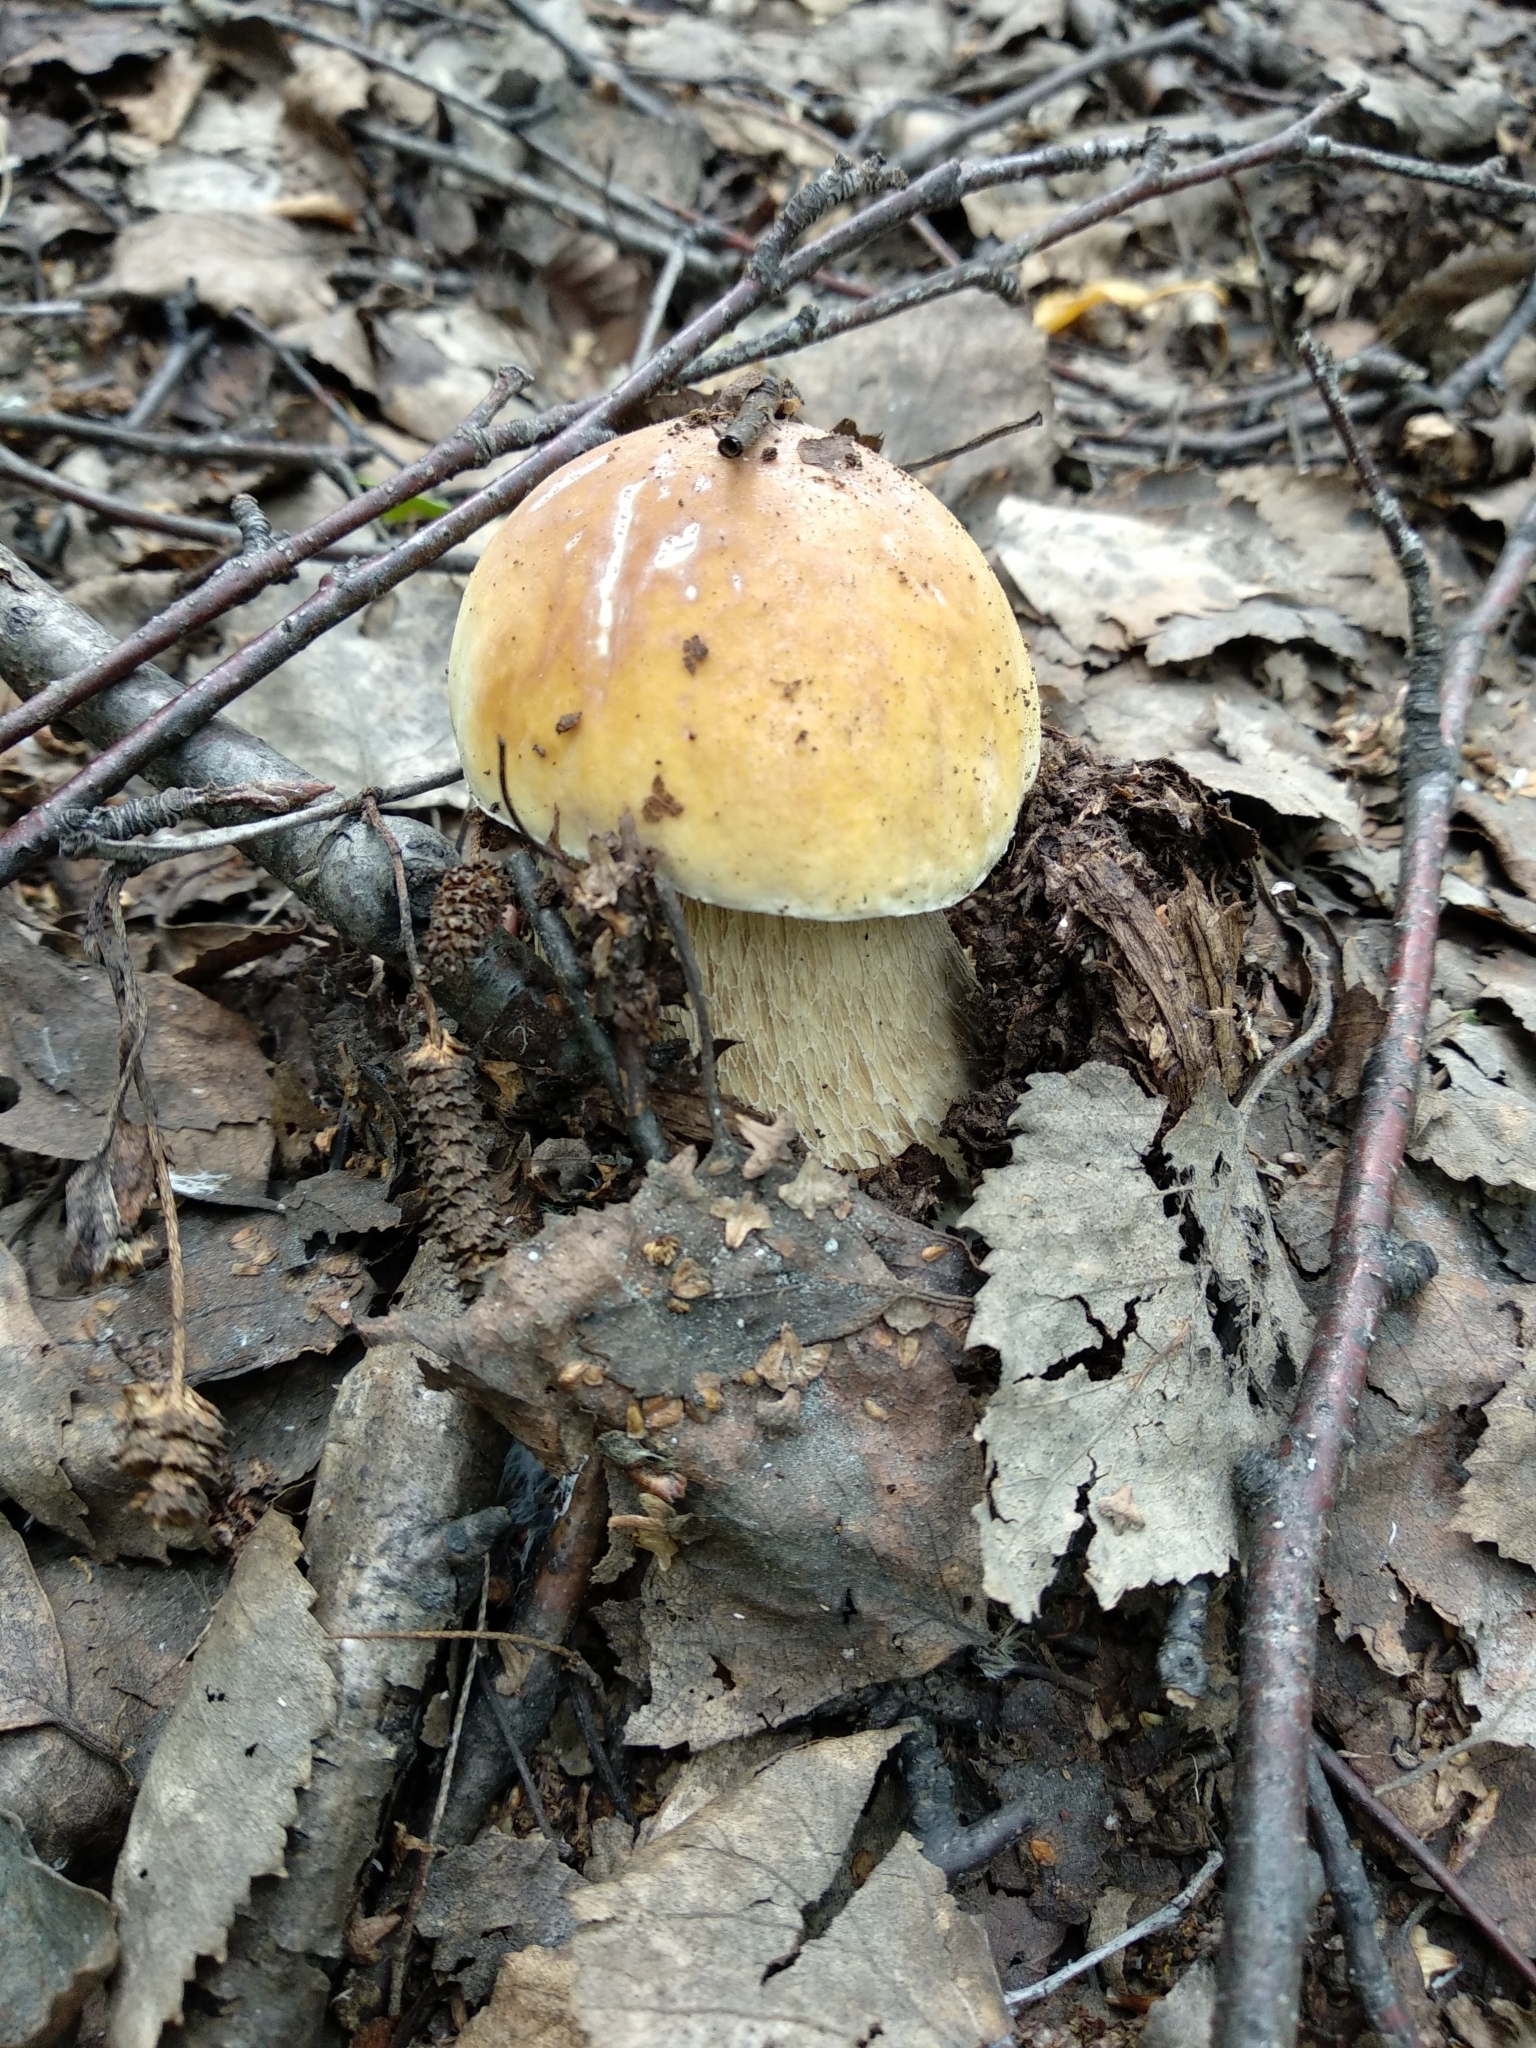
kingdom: Fungi
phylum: Basidiomycota
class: Agaricomycetes
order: Boletales
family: Boletaceae
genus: Boletus
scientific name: Boletus edulis
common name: Cep
